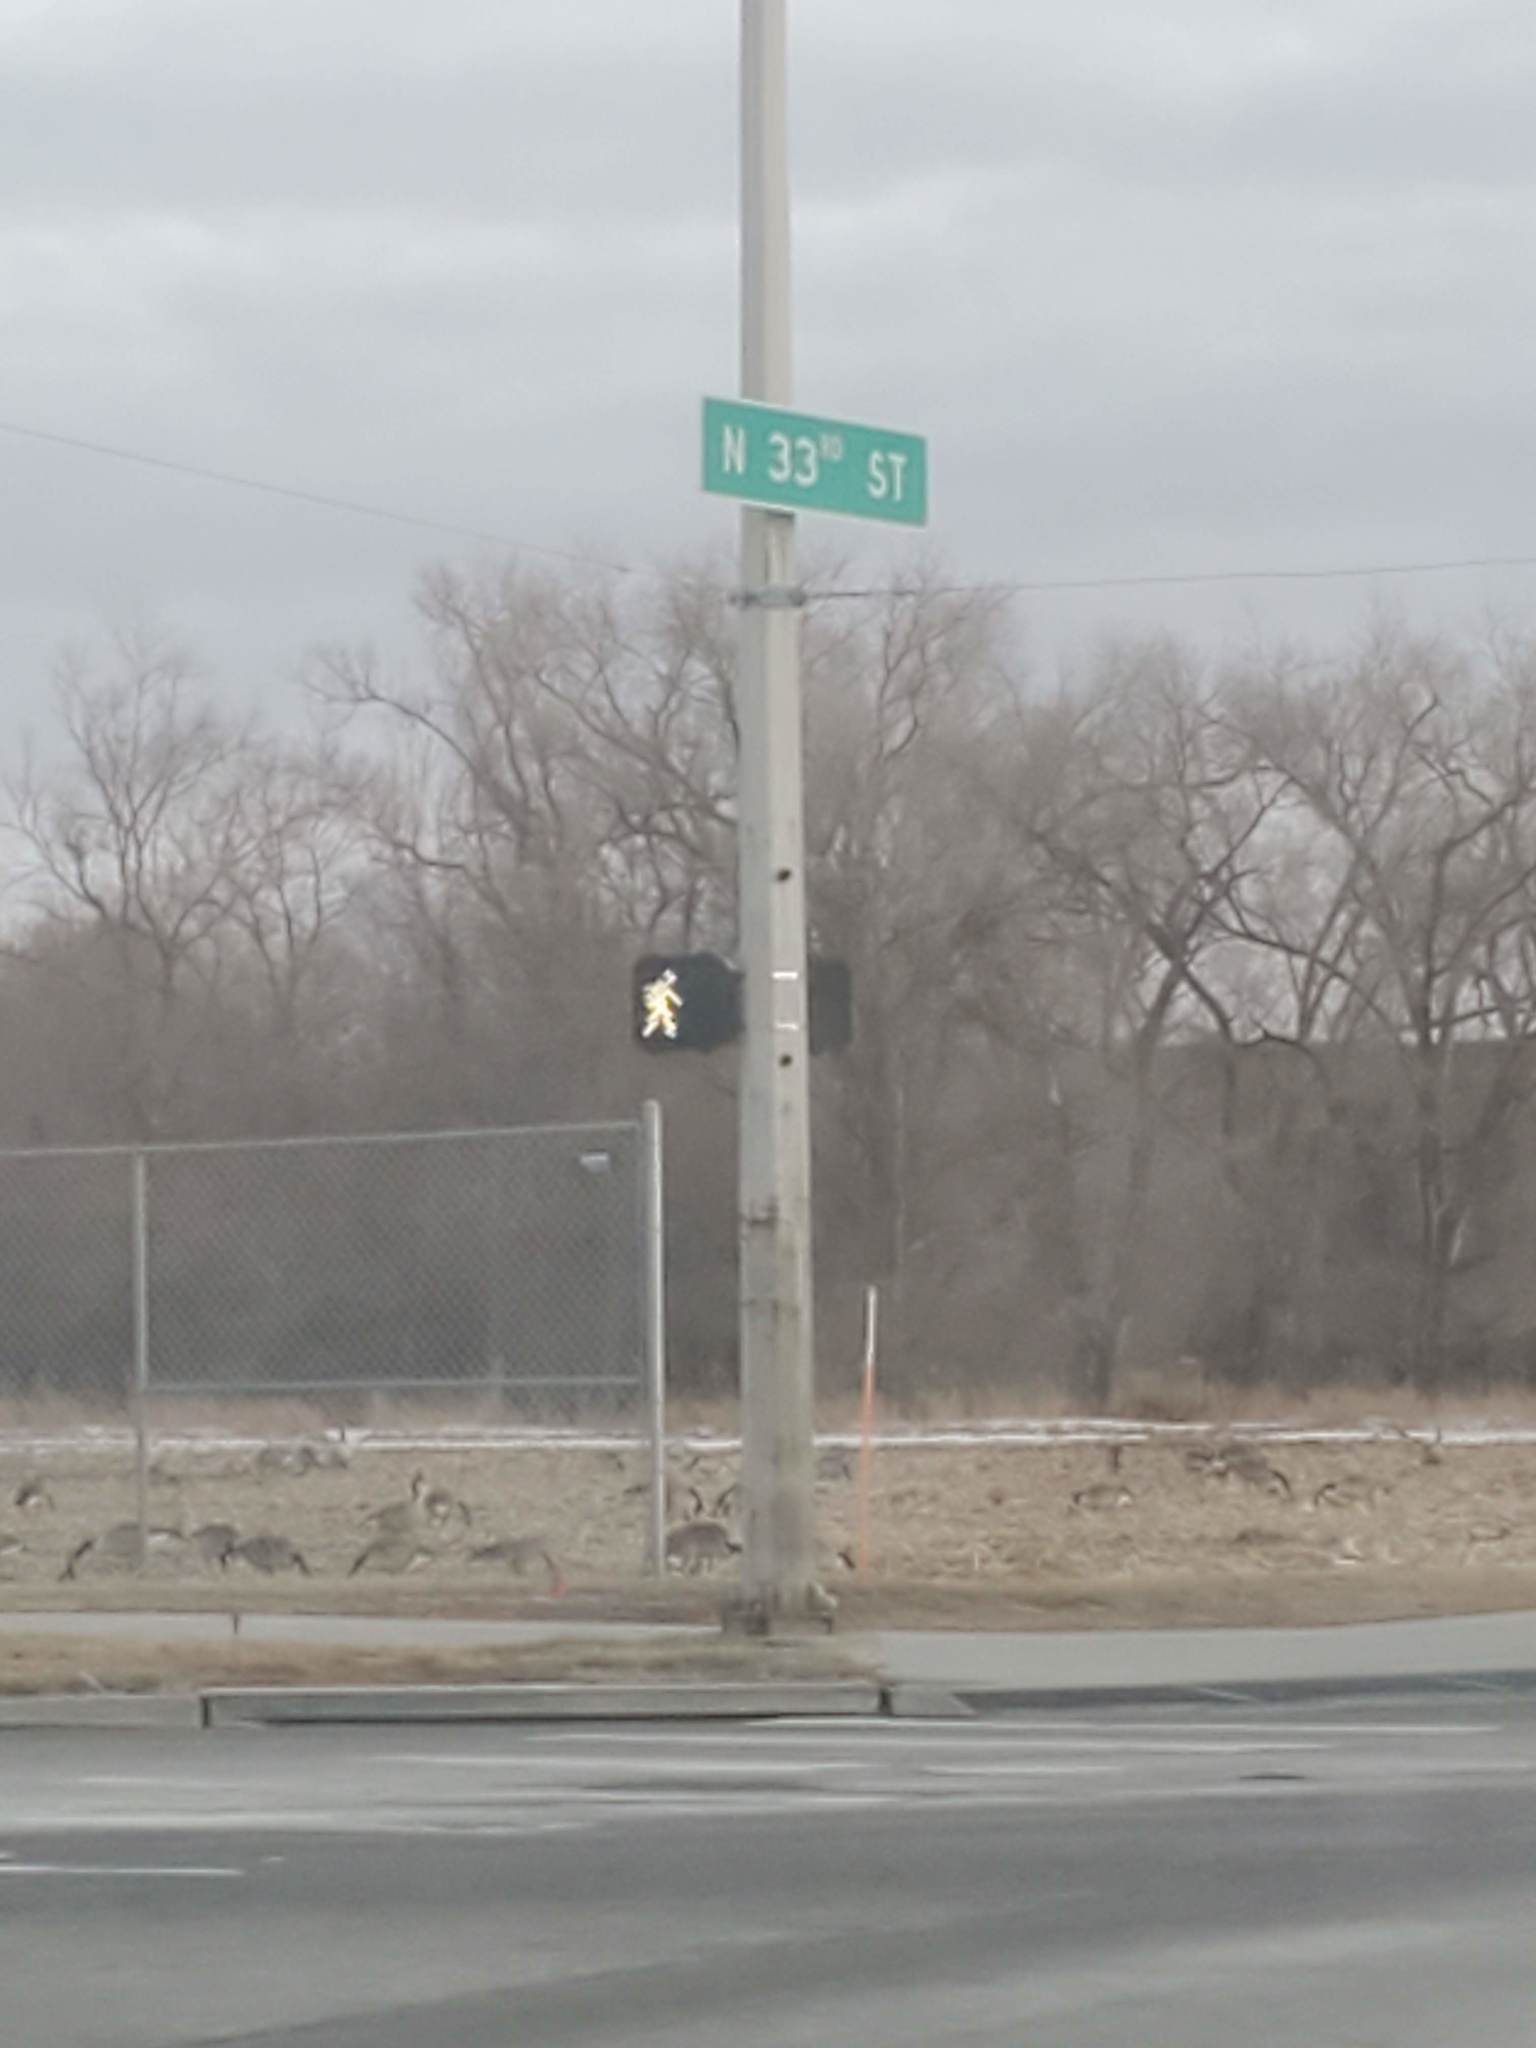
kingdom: Animalia
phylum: Chordata
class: Aves
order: Anseriformes
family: Anatidae
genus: Branta
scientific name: Branta canadensis
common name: Canada goose
